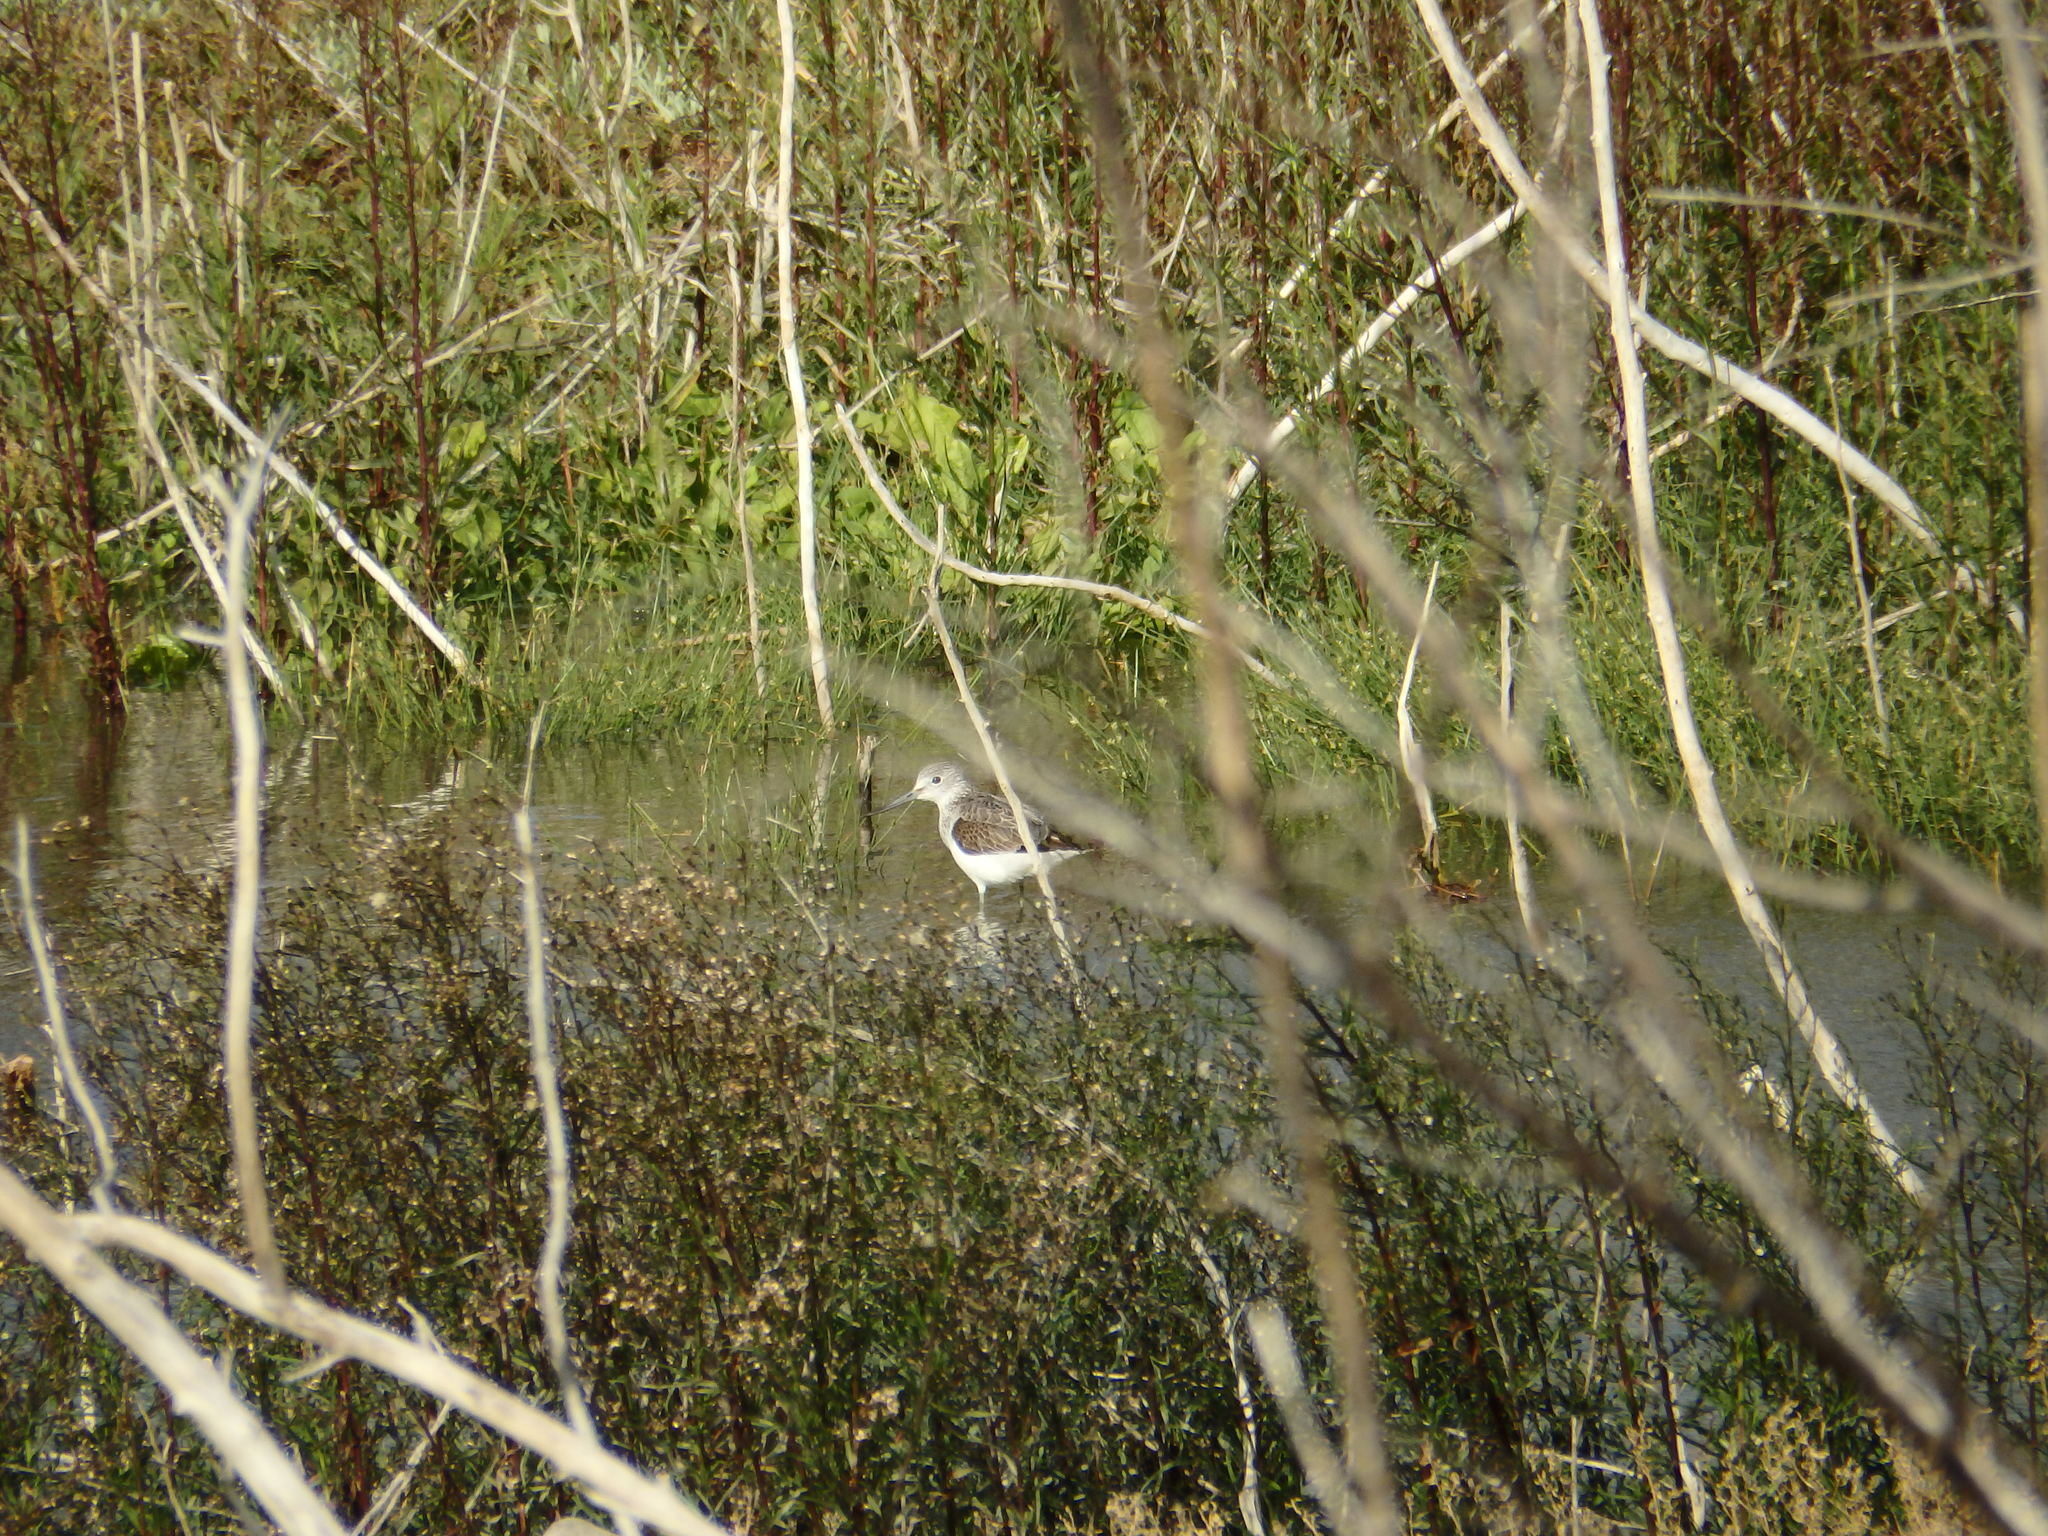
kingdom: Animalia
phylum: Chordata
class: Aves
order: Charadriiformes
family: Scolopacidae
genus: Tringa
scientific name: Tringa nebularia
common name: Common greenshank
